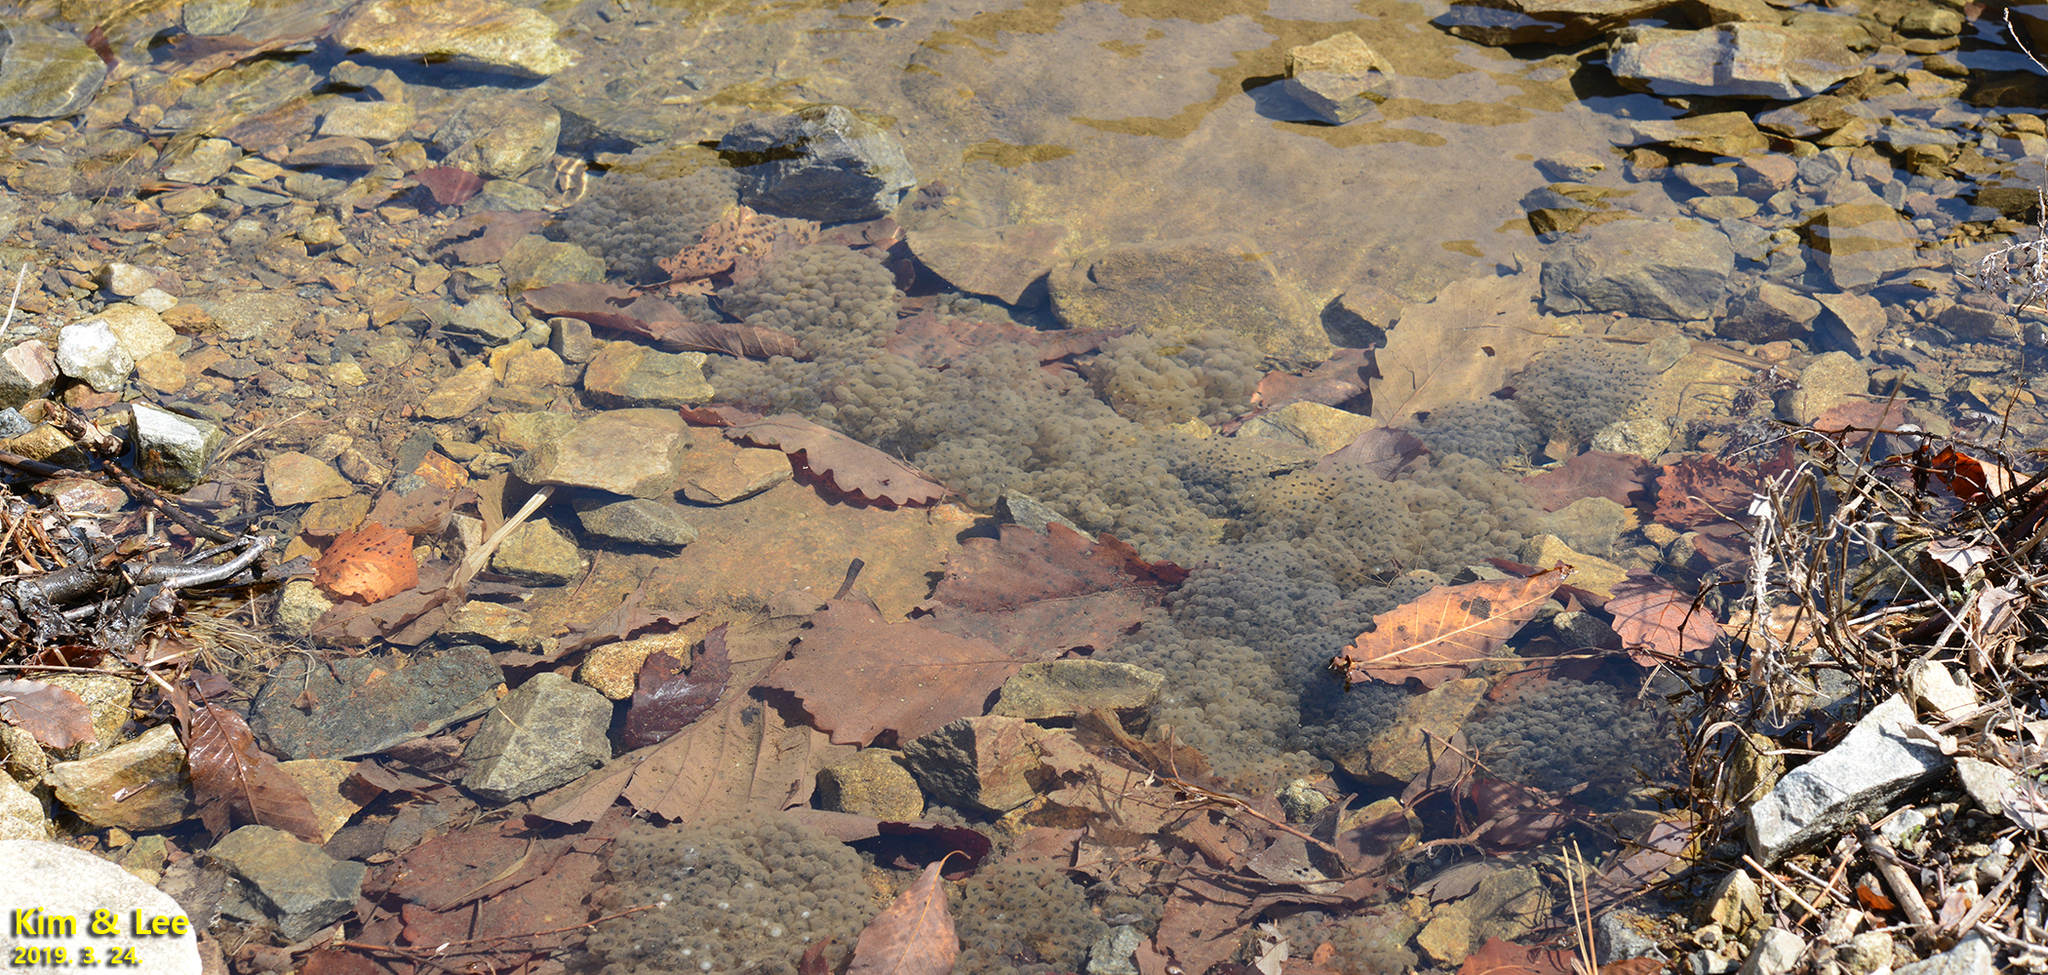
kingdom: Animalia
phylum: Chordata
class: Amphibia
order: Anura
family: Ranidae
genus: Rana
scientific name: Rana huanrenensis
